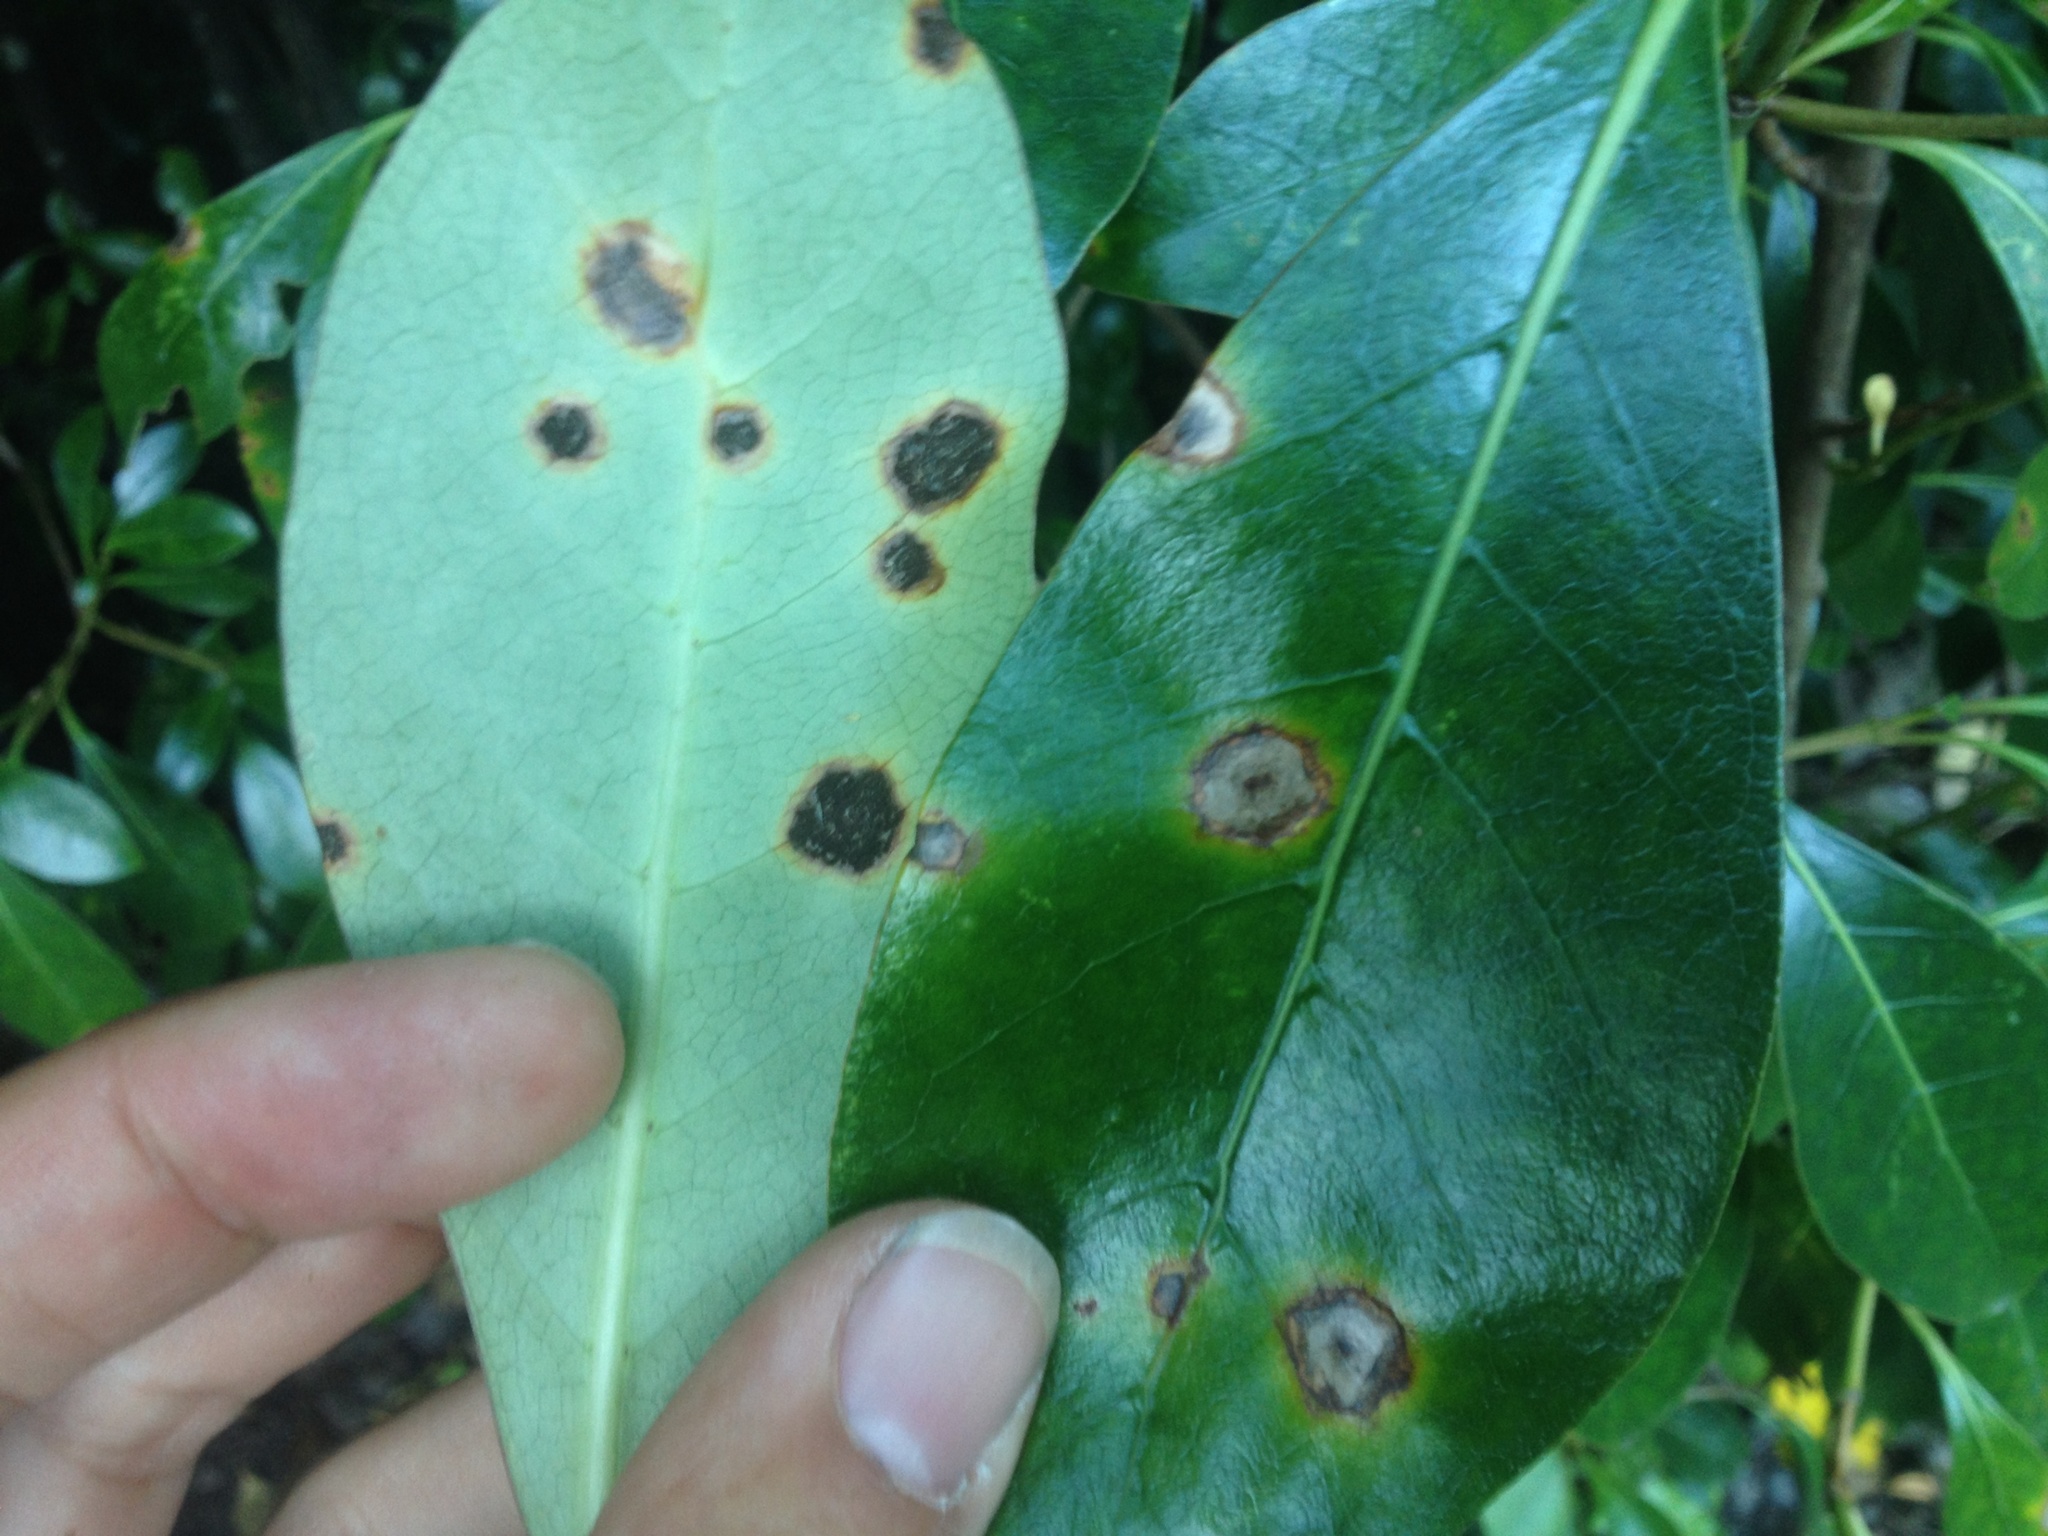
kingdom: Fungi
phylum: Basidiomycota
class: Pucciniomycetes
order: Pucciniales
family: Pucciniaceae
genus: Puccinia
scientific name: Puccinia coprosmae
